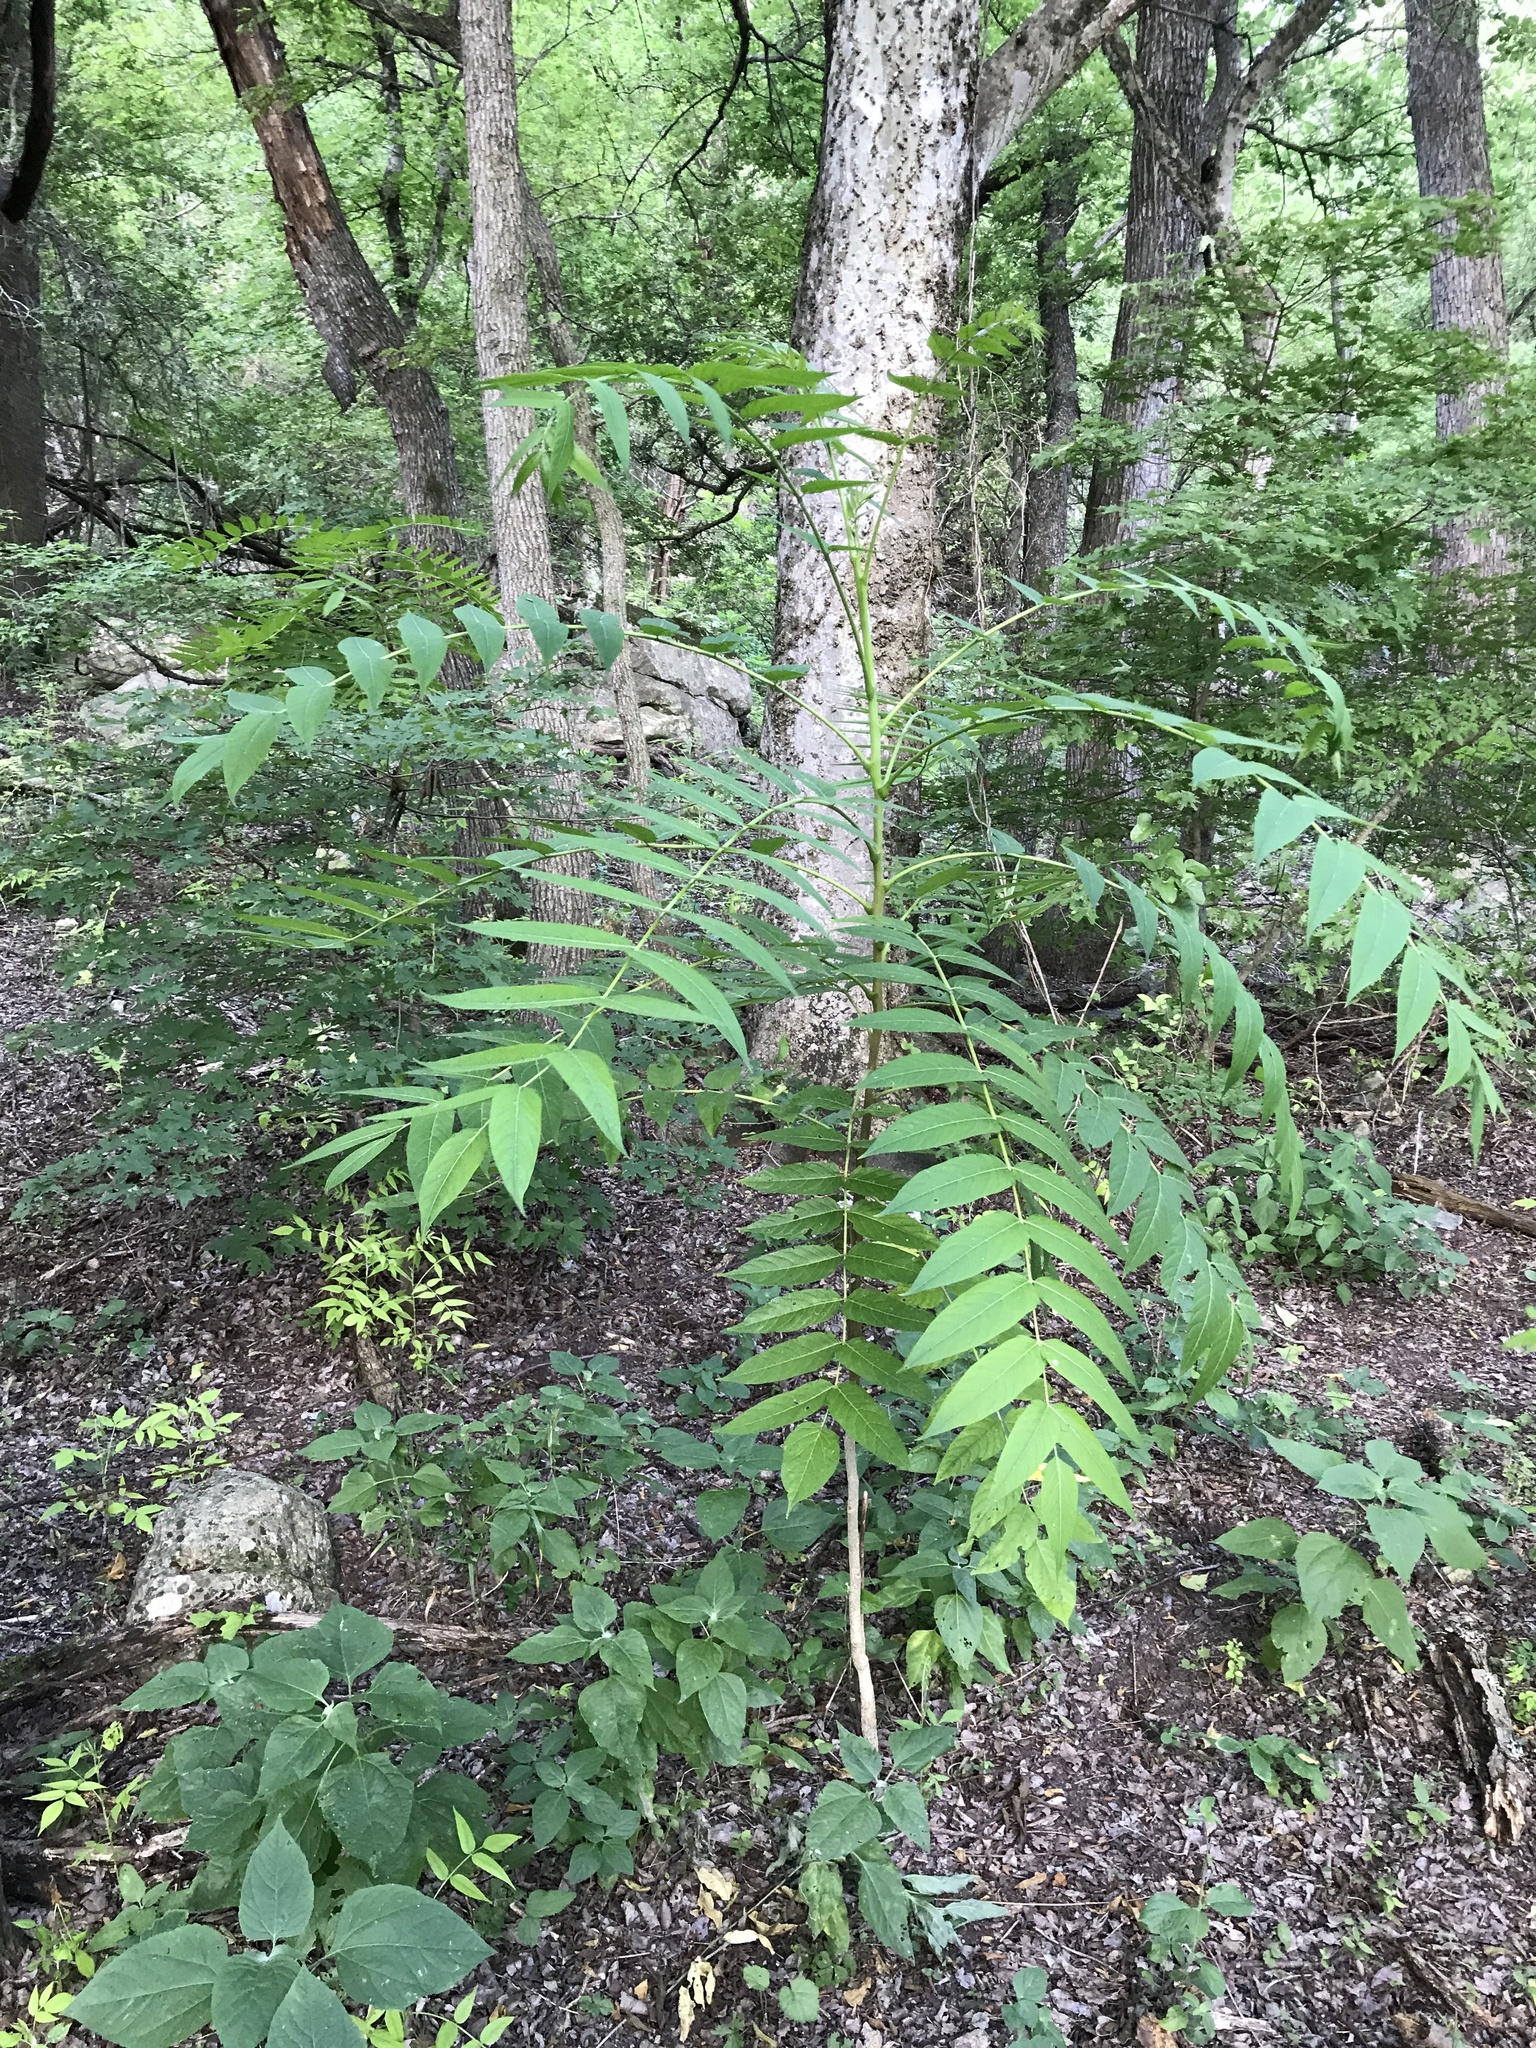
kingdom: Plantae
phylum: Tracheophyta
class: Magnoliopsida
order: Sapindales
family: Simaroubaceae
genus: Ailanthus
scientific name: Ailanthus altissima
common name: Tree-of-heaven
